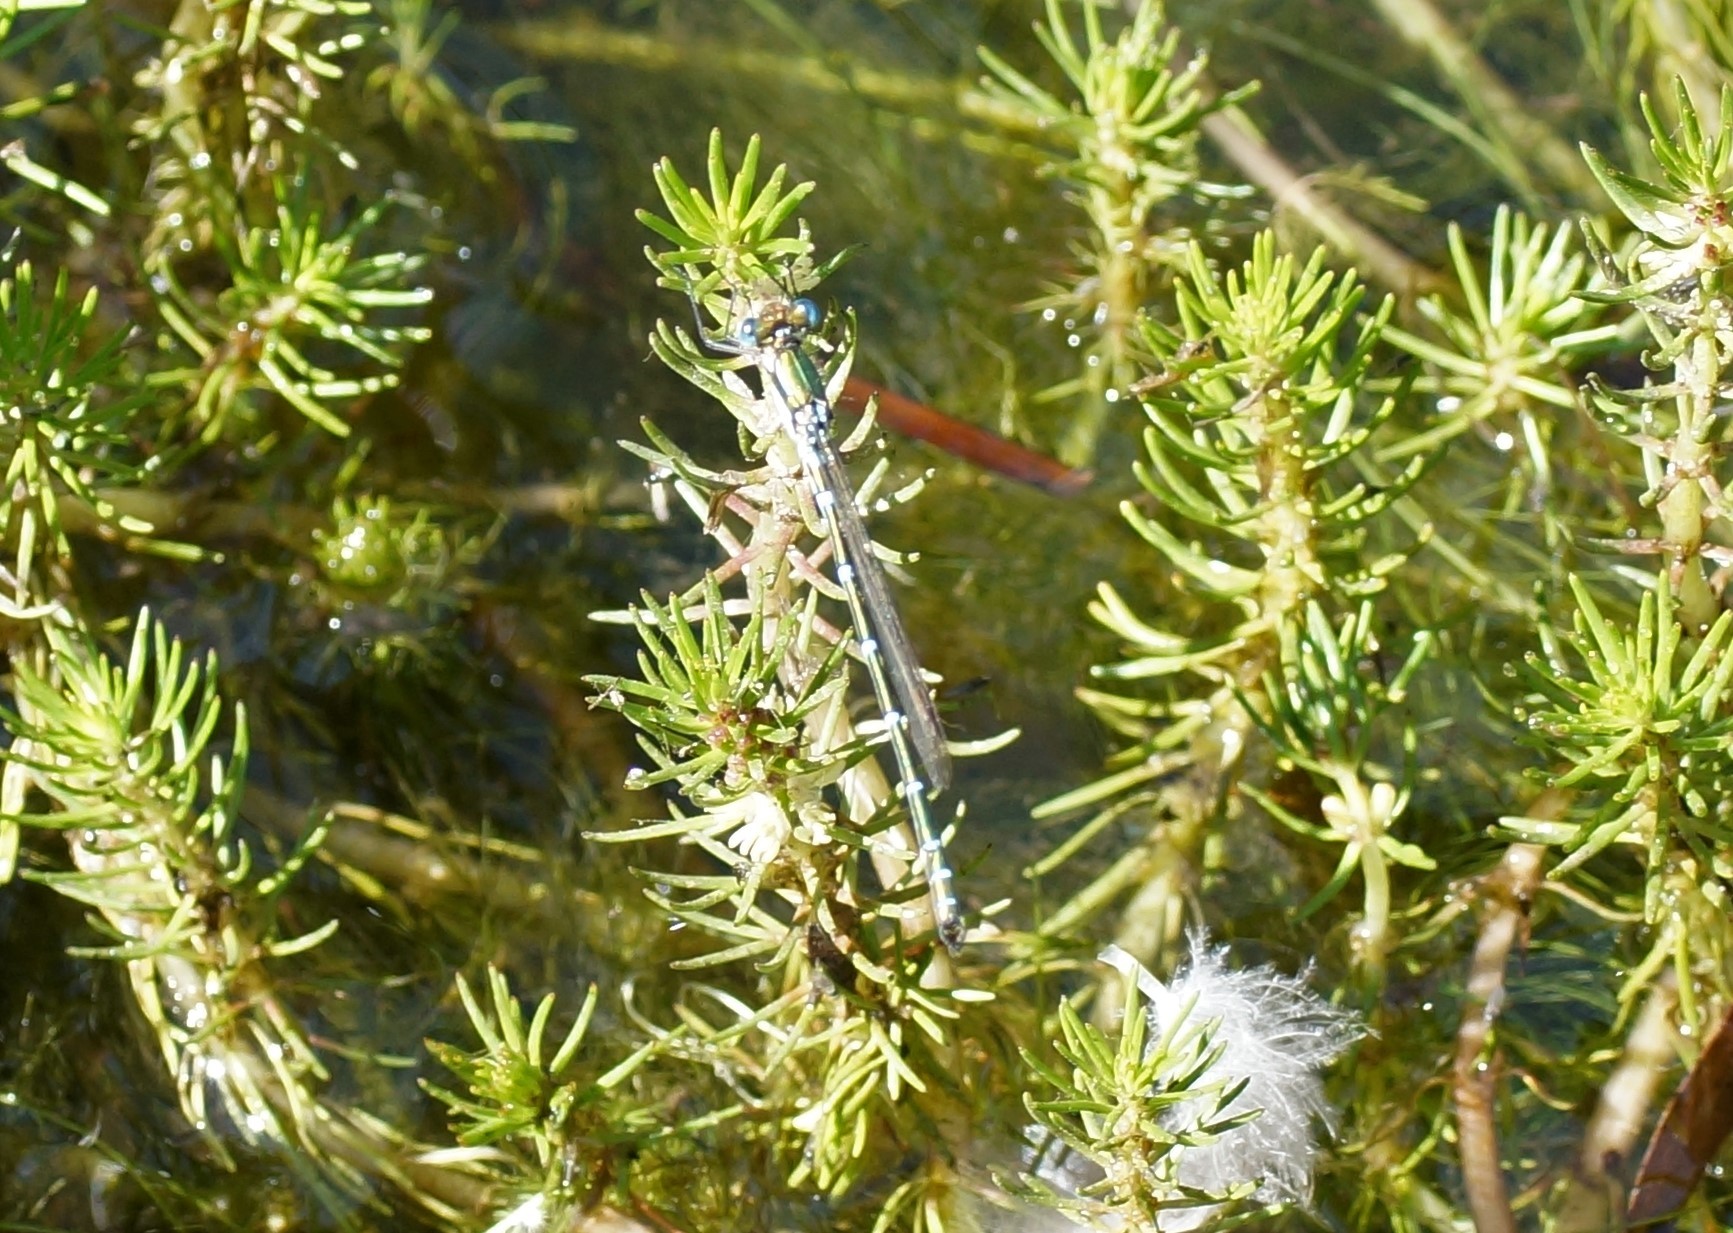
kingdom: Animalia
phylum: Arthropoda
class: Insecta
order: Odonata
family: Lestidae
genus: Austrolestes
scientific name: Austrolestes cingulatus
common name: Metallic ringtail
